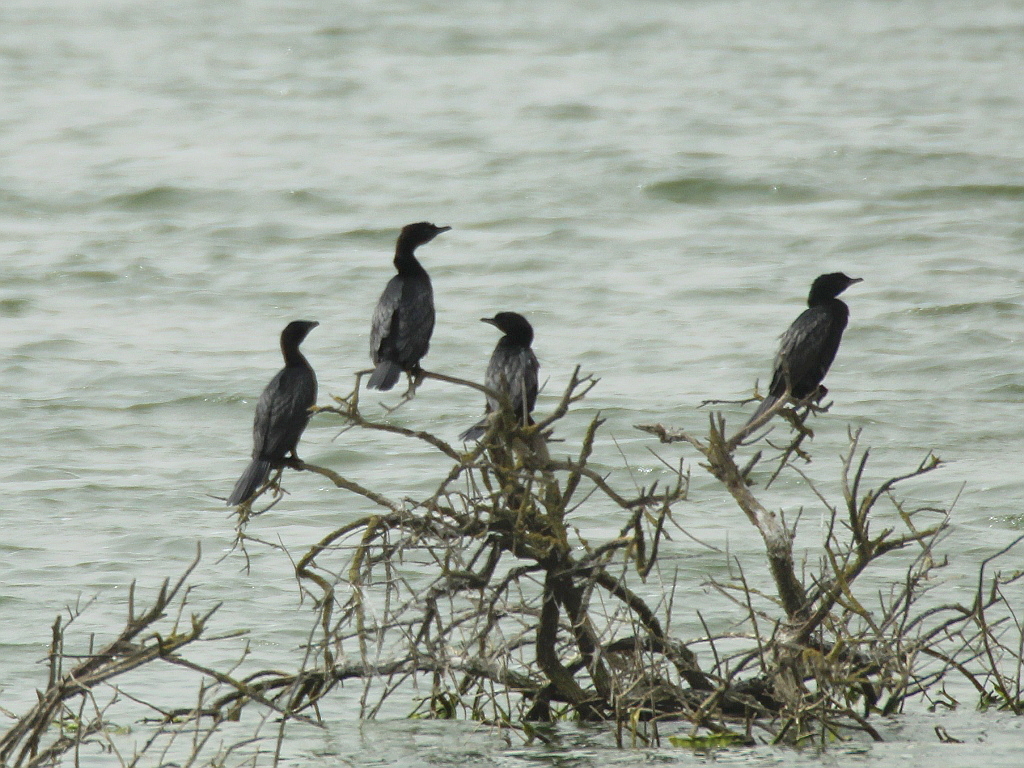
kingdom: Animalia
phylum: Chordata
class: Aves
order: Suliformes
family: Phalacrocoracidae
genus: Microcarbo
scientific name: Microcarbo pygmaeus
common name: Pygmy cormorant
